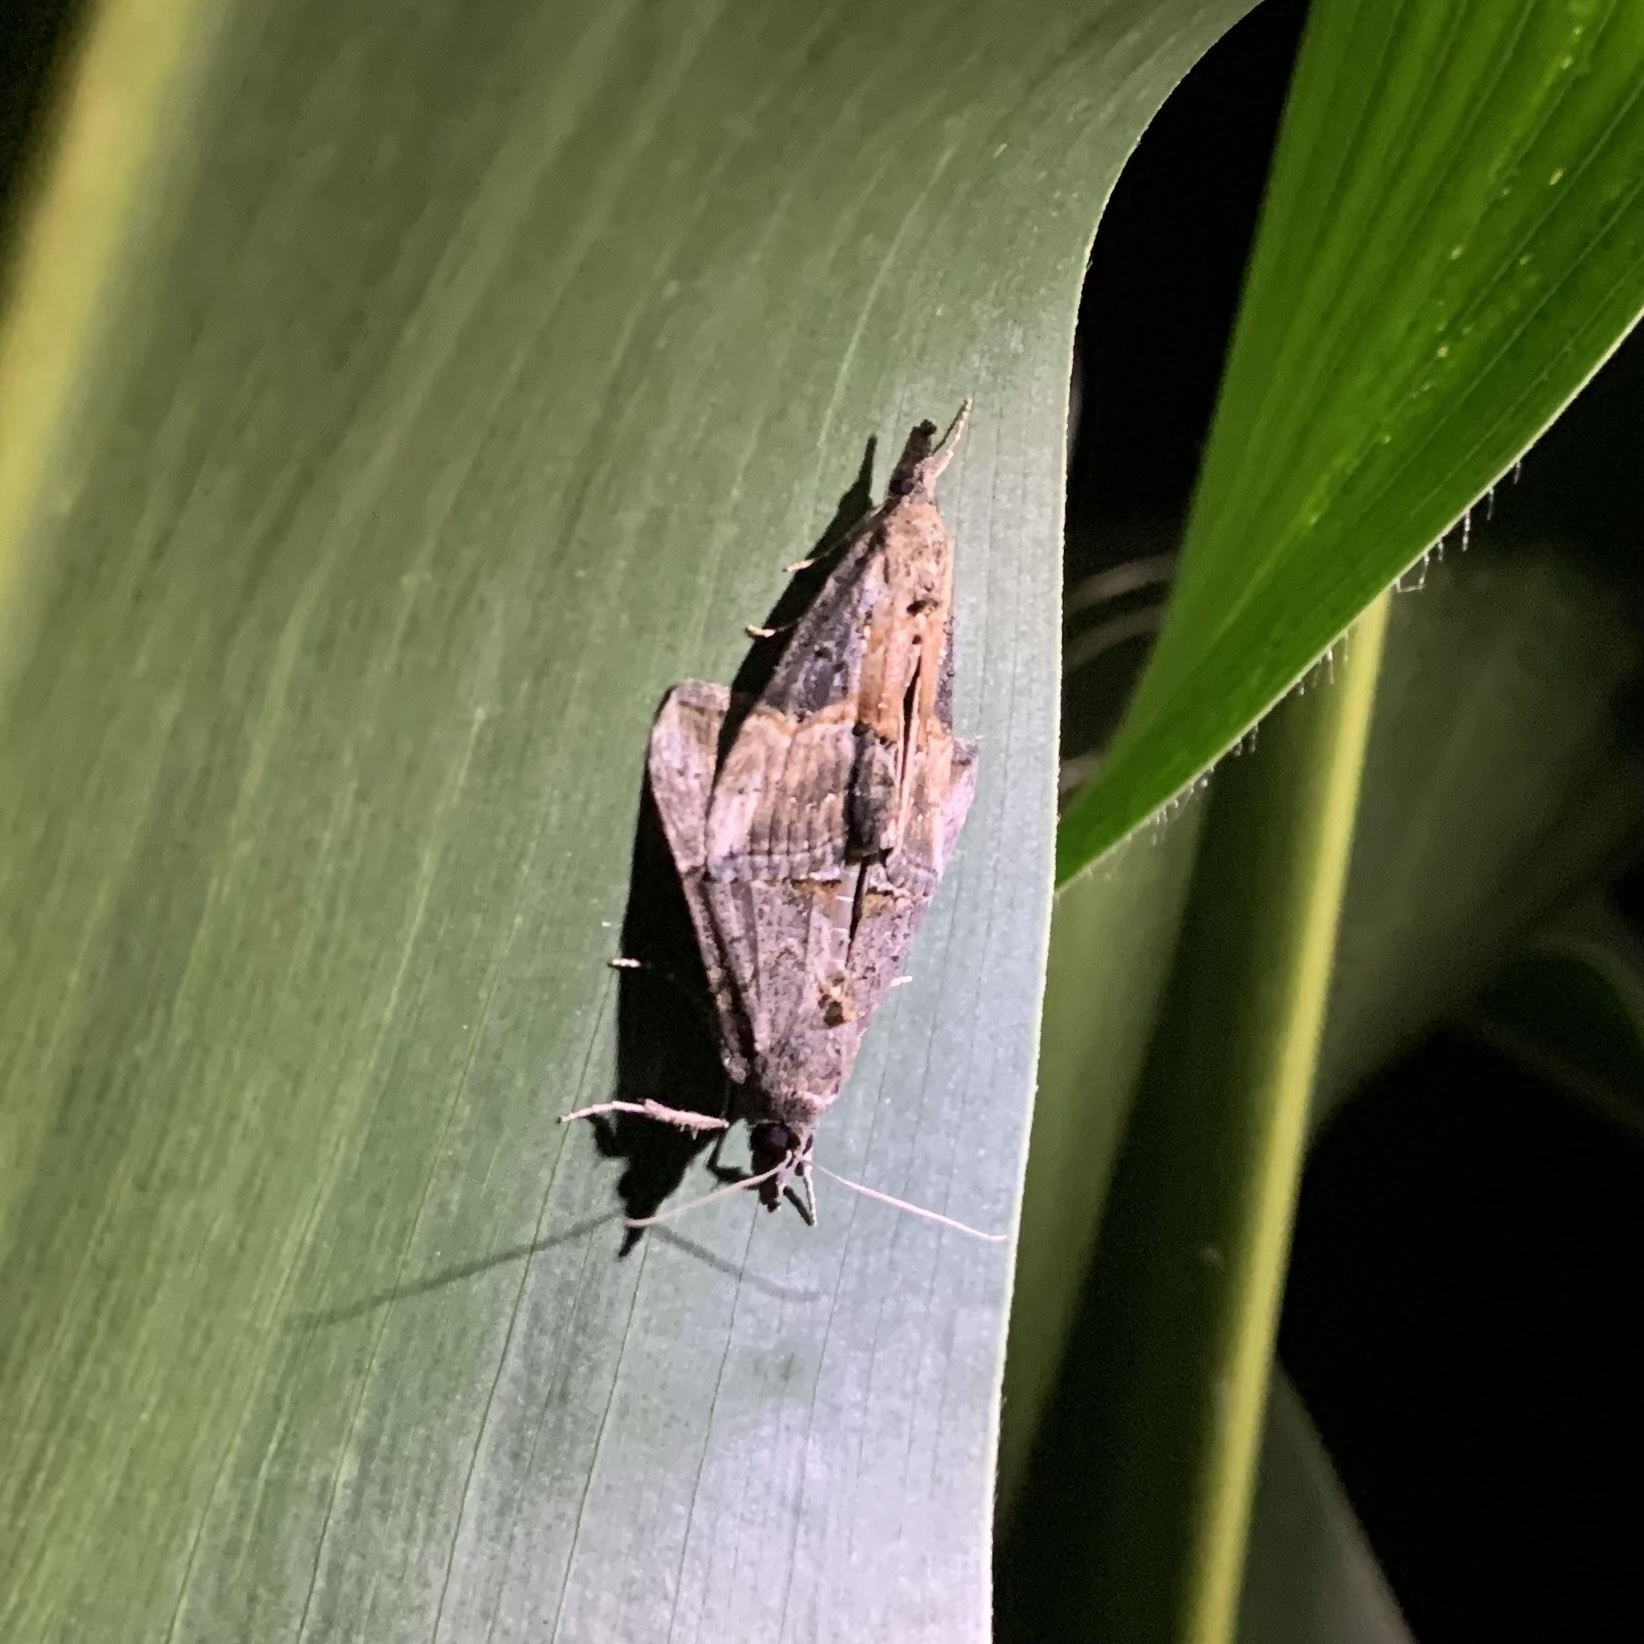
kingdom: Animalia
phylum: Arthropoda
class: Insecta
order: Lepidoptera
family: Erebidae
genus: Hypena
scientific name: Hypena scabra
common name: Green cloverworm
